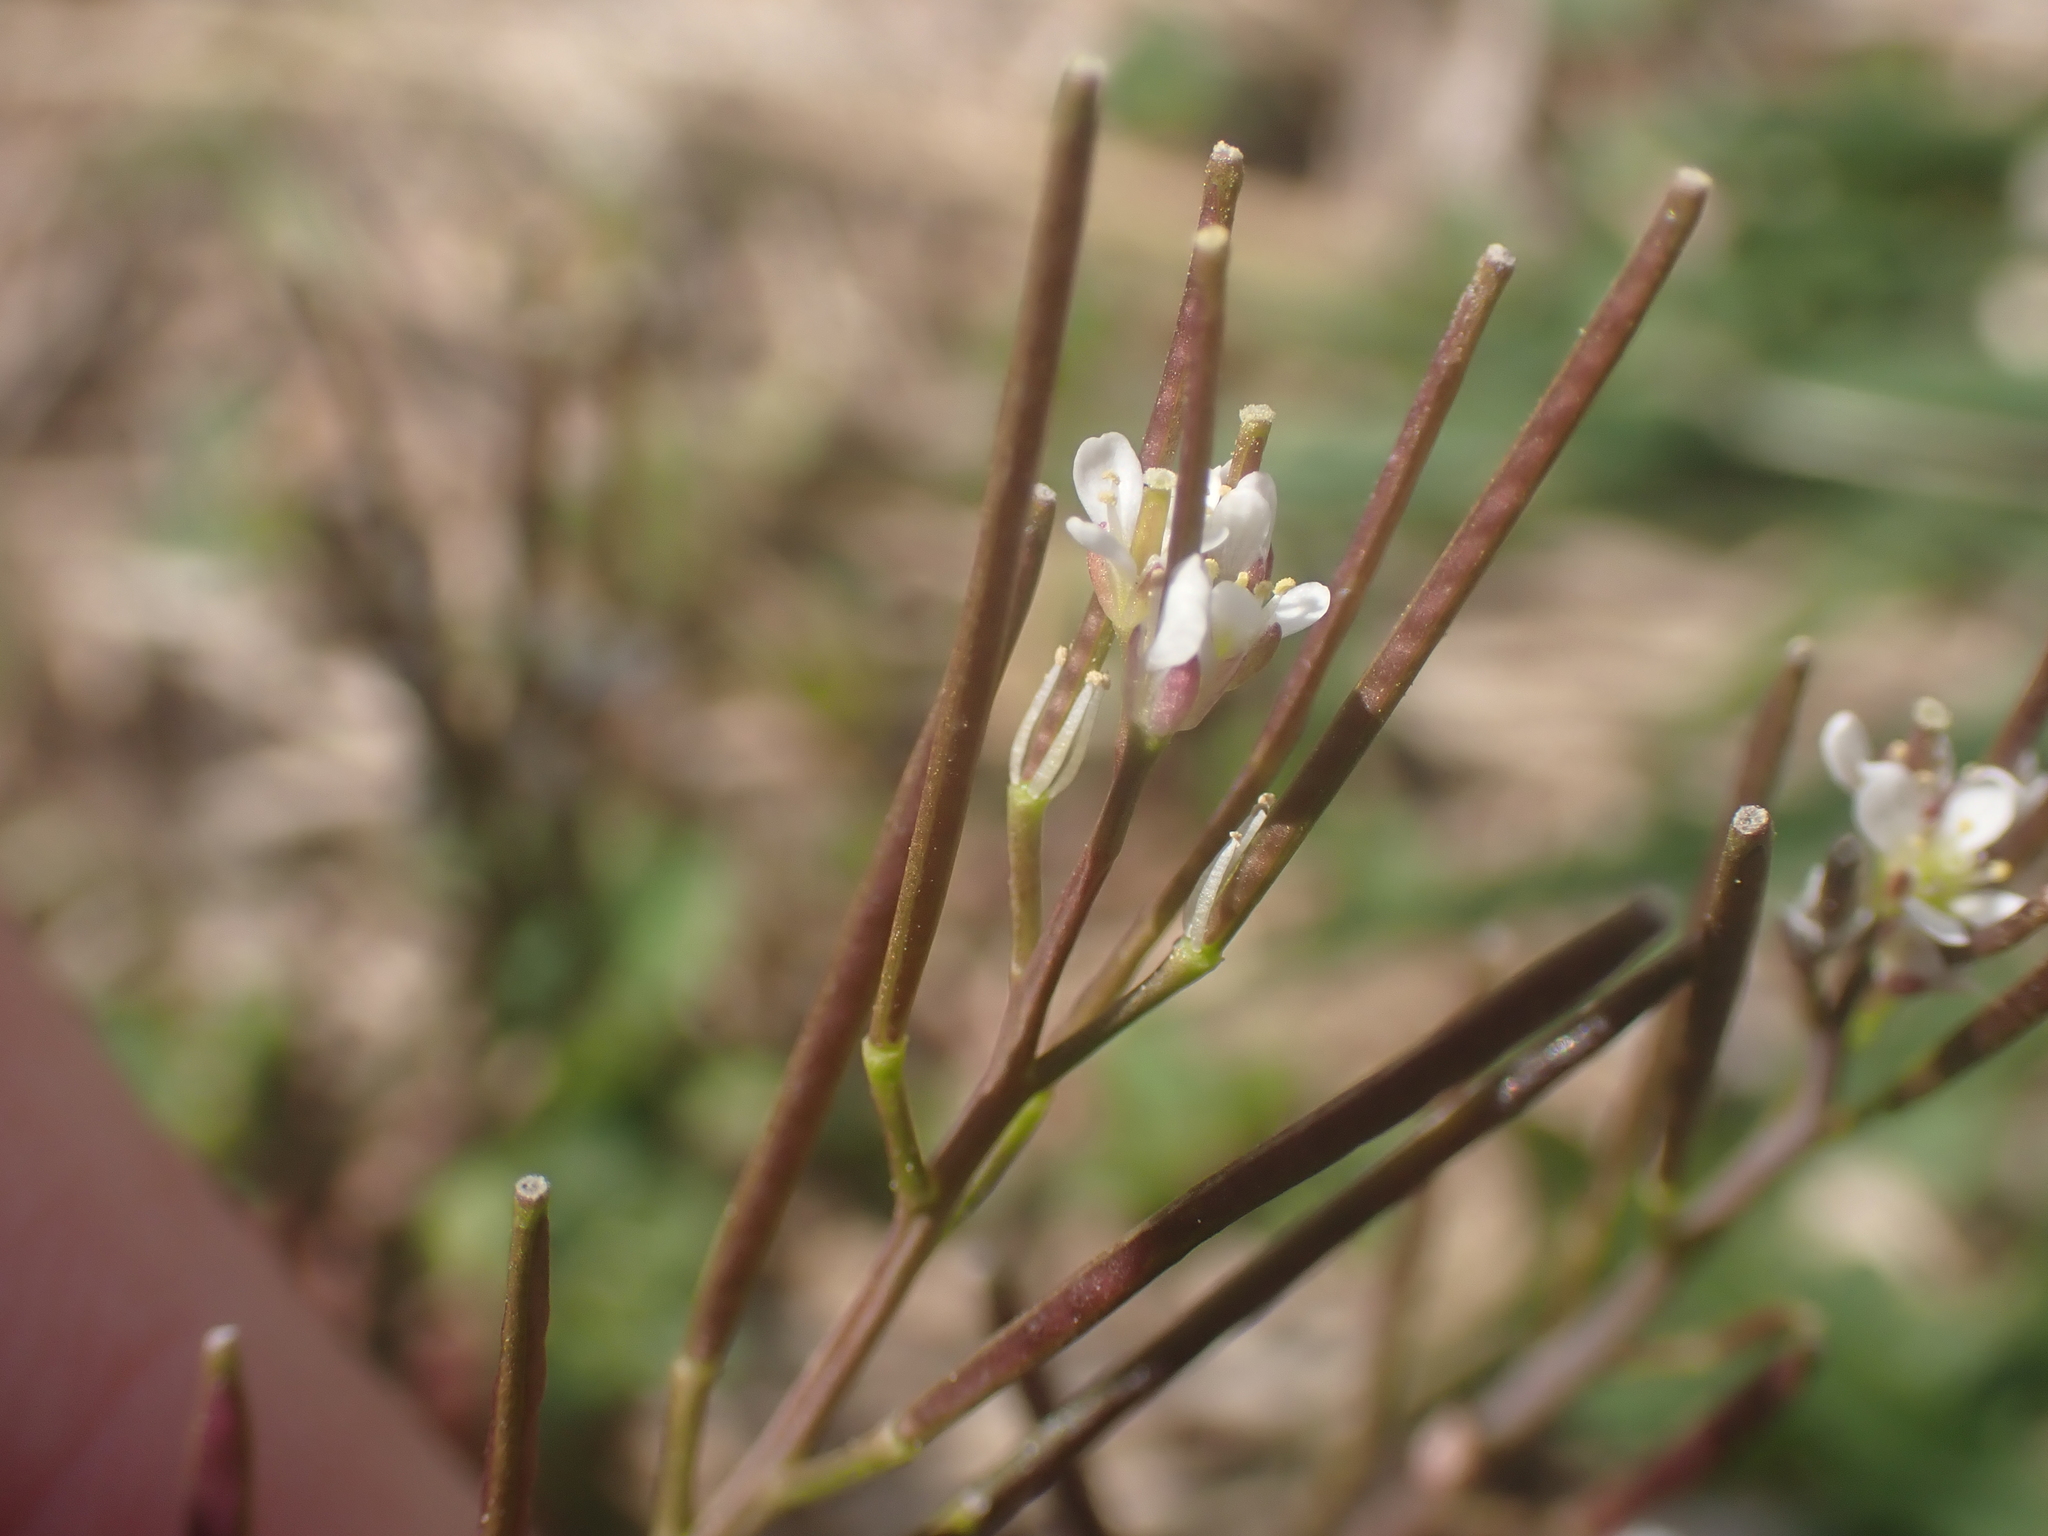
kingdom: Plantae
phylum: Tracheophyta
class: Magnoliopsida
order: Brassicales
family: Brassicaceae
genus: Cardamine
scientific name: Cardamine hirsuta
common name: Hairy bittercress
